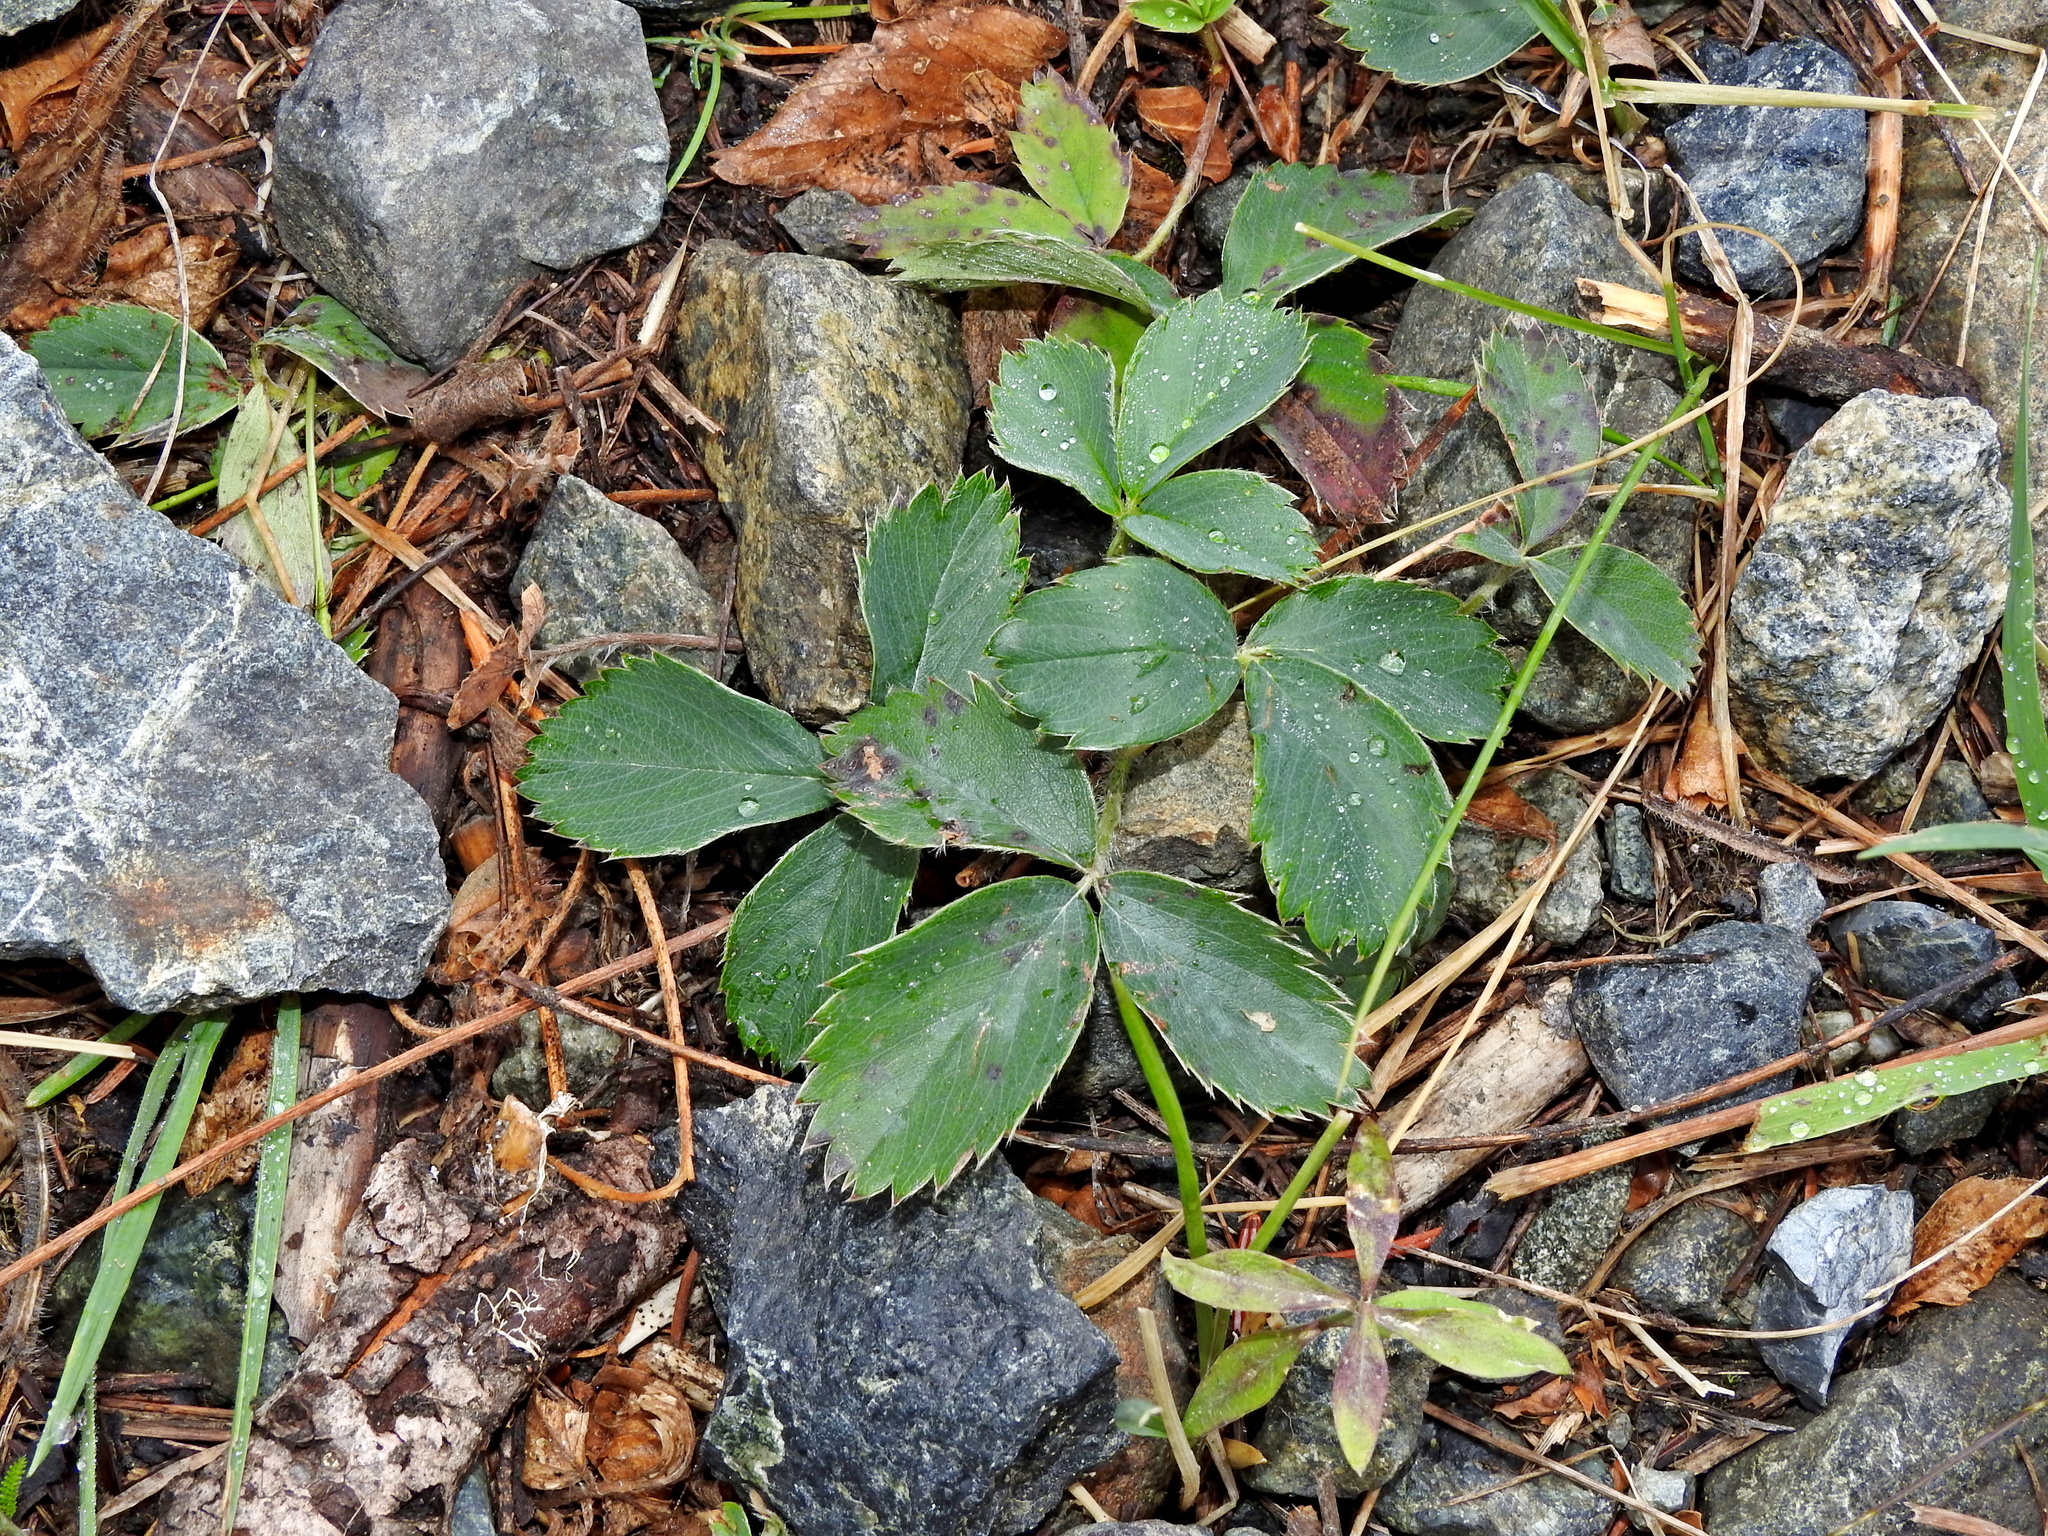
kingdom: Plantae
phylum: Tracheophyta
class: Magnoliopsida
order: Rosales
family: Rosaceae
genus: Fragaria
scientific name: Fragaria virginiana
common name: Thickleaved wild strawberry
